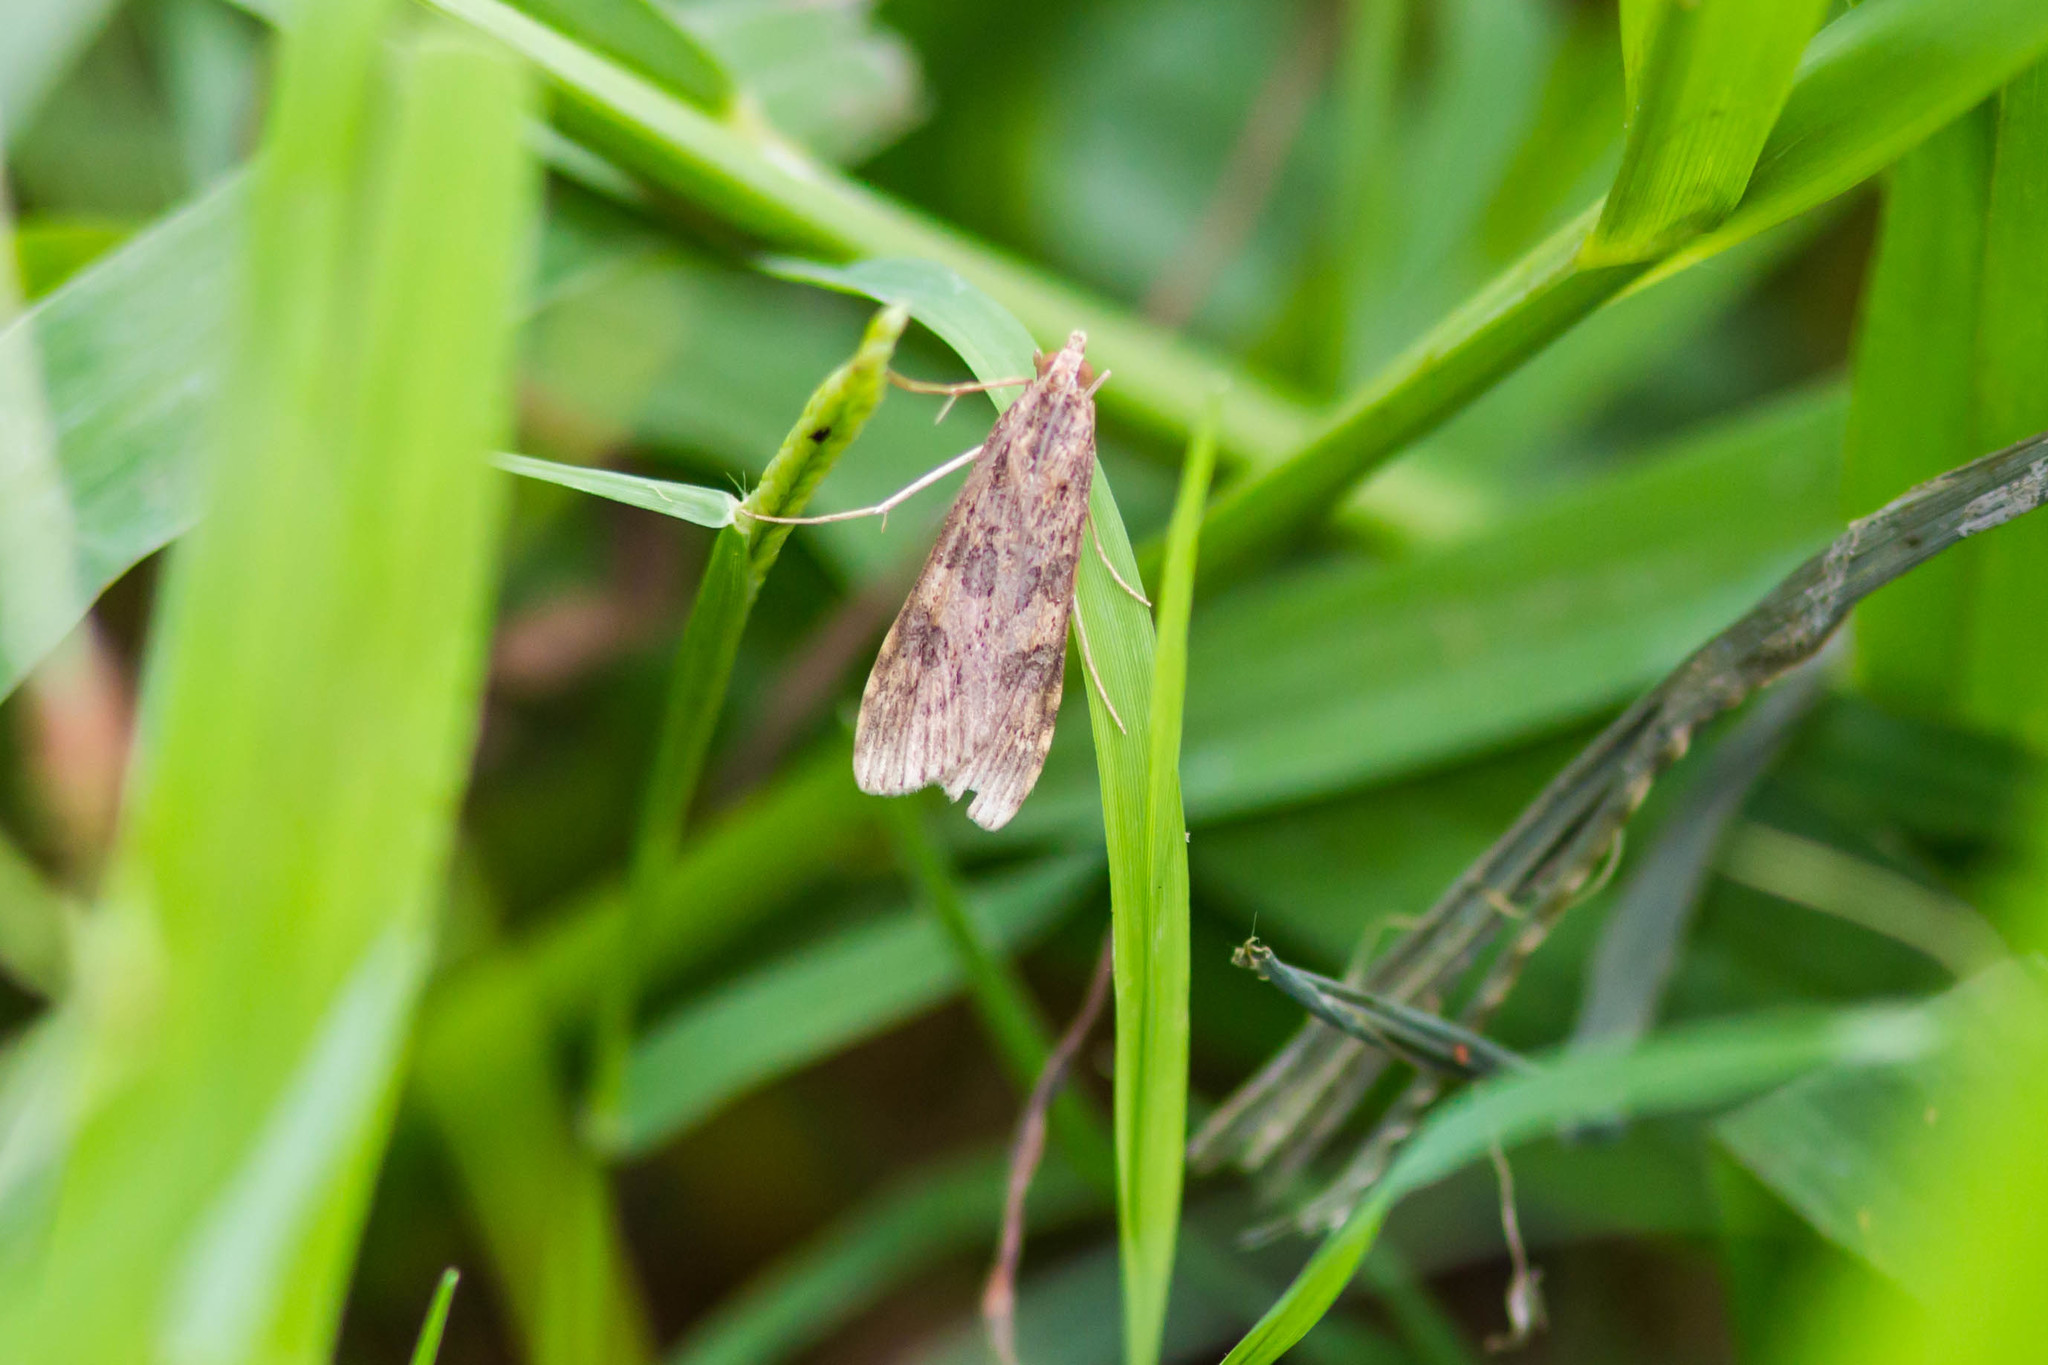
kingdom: Animalia
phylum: Arthropoda
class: Insecta
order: Lepidoptera
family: Crambidae
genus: Nomophila
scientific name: Nomophila nearctica
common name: American rush veneer
